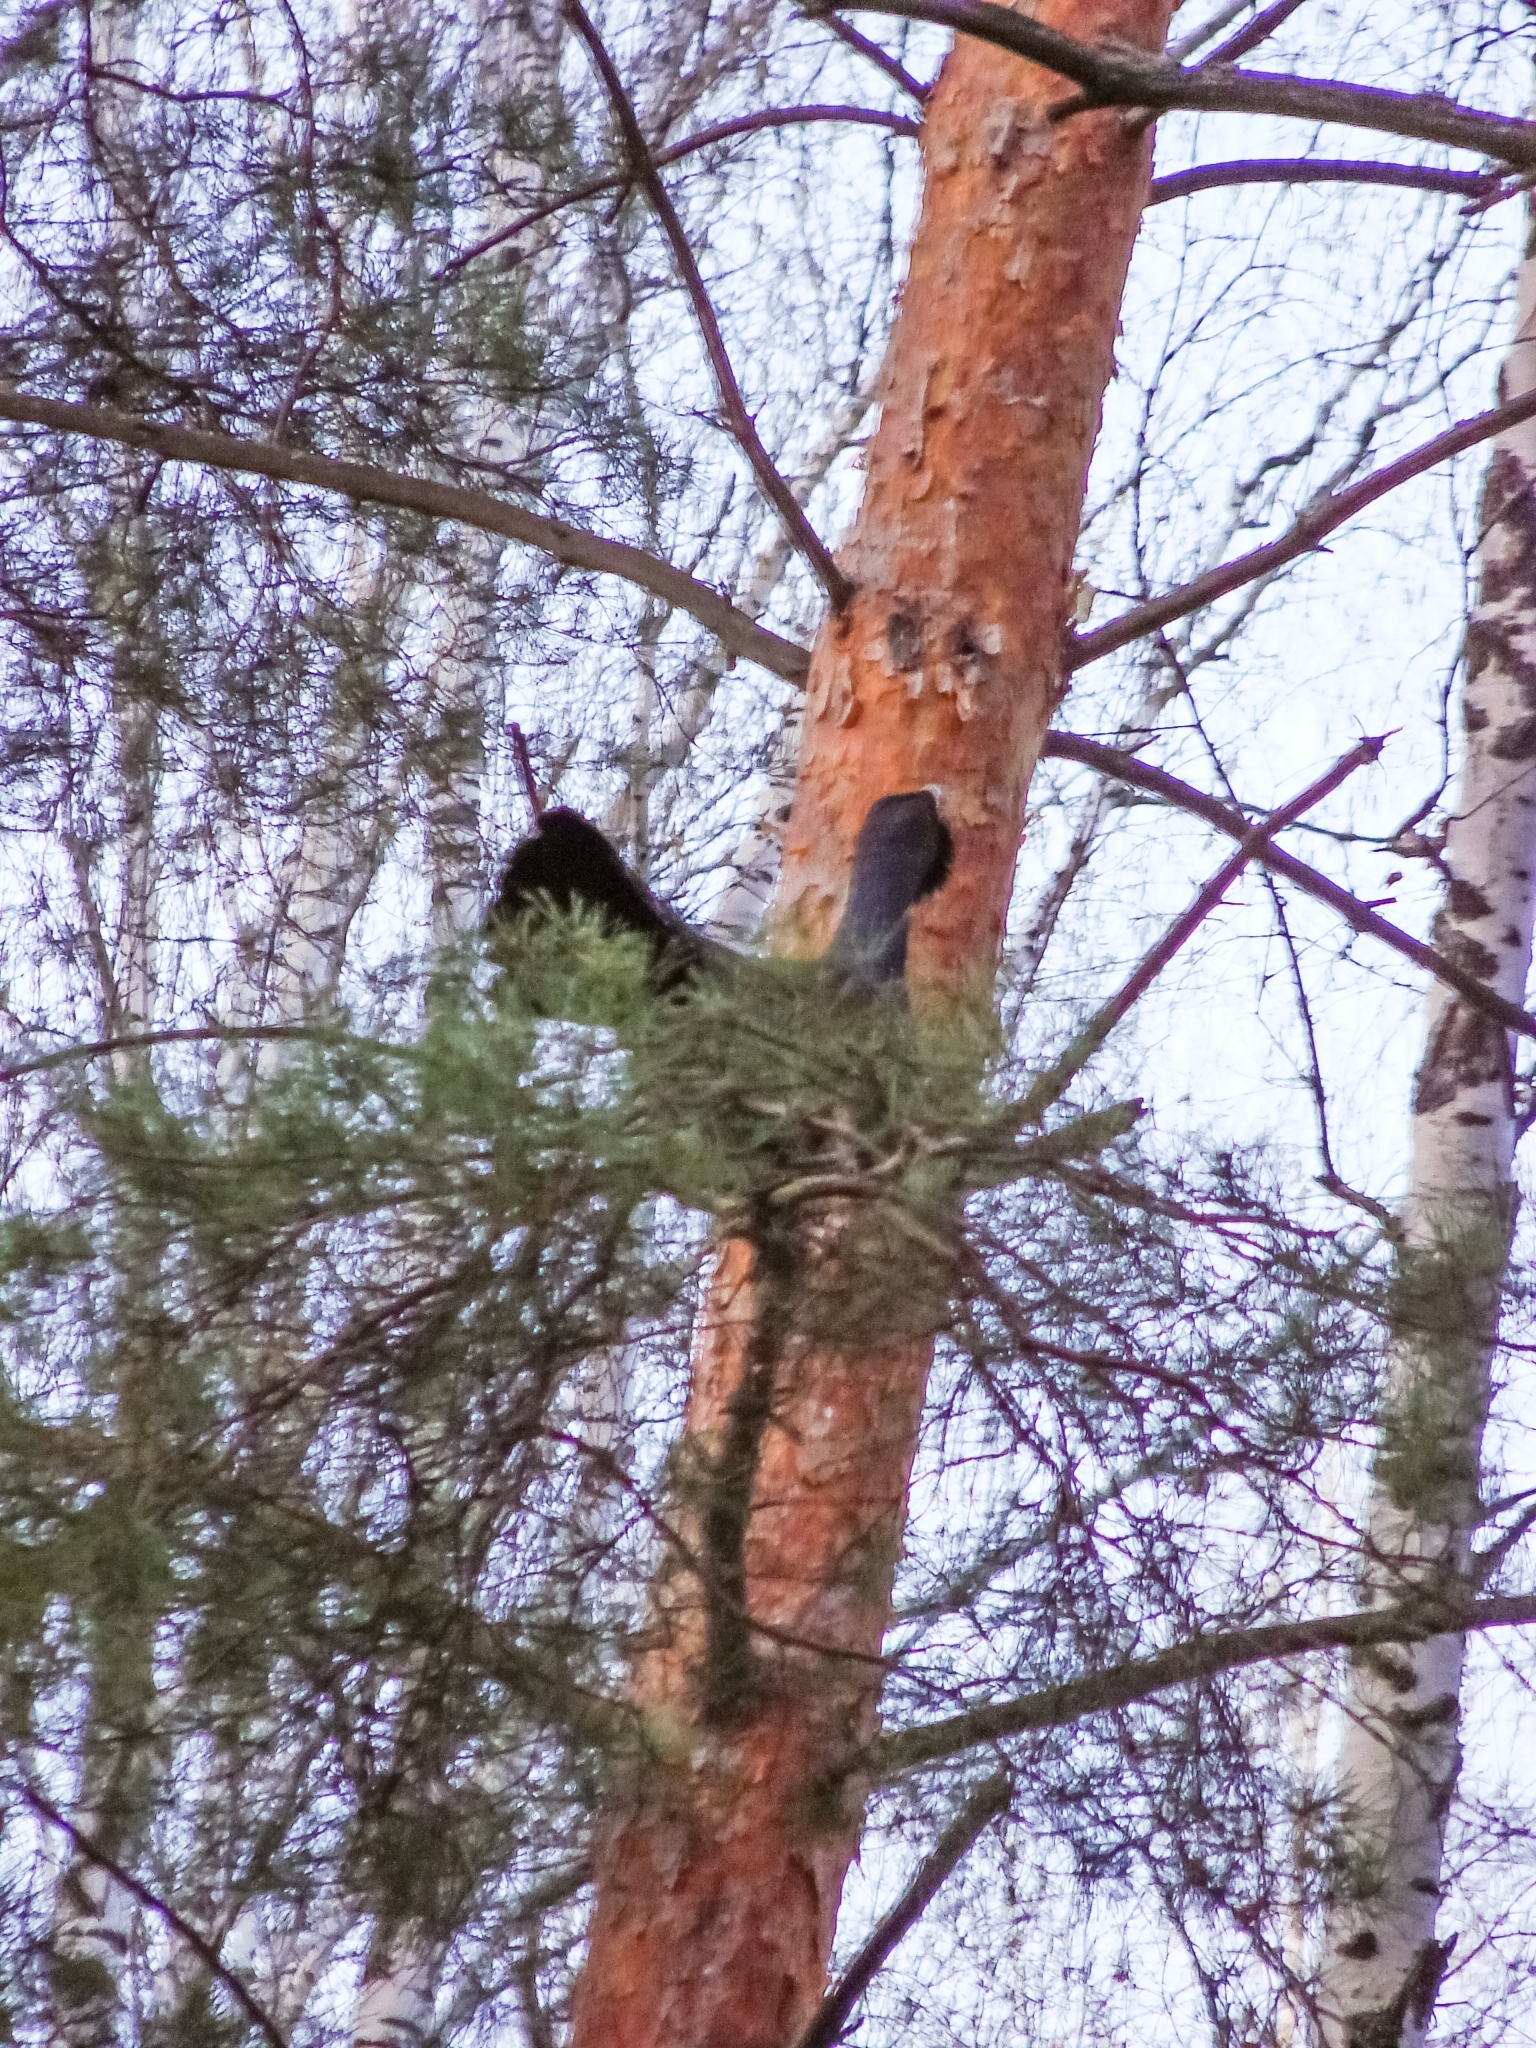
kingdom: Animalia
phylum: Chordata
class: Aves
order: Galliformes
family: Phasianidae
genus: Tetrao
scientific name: Tetrao urogallus
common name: Western capercaillie
